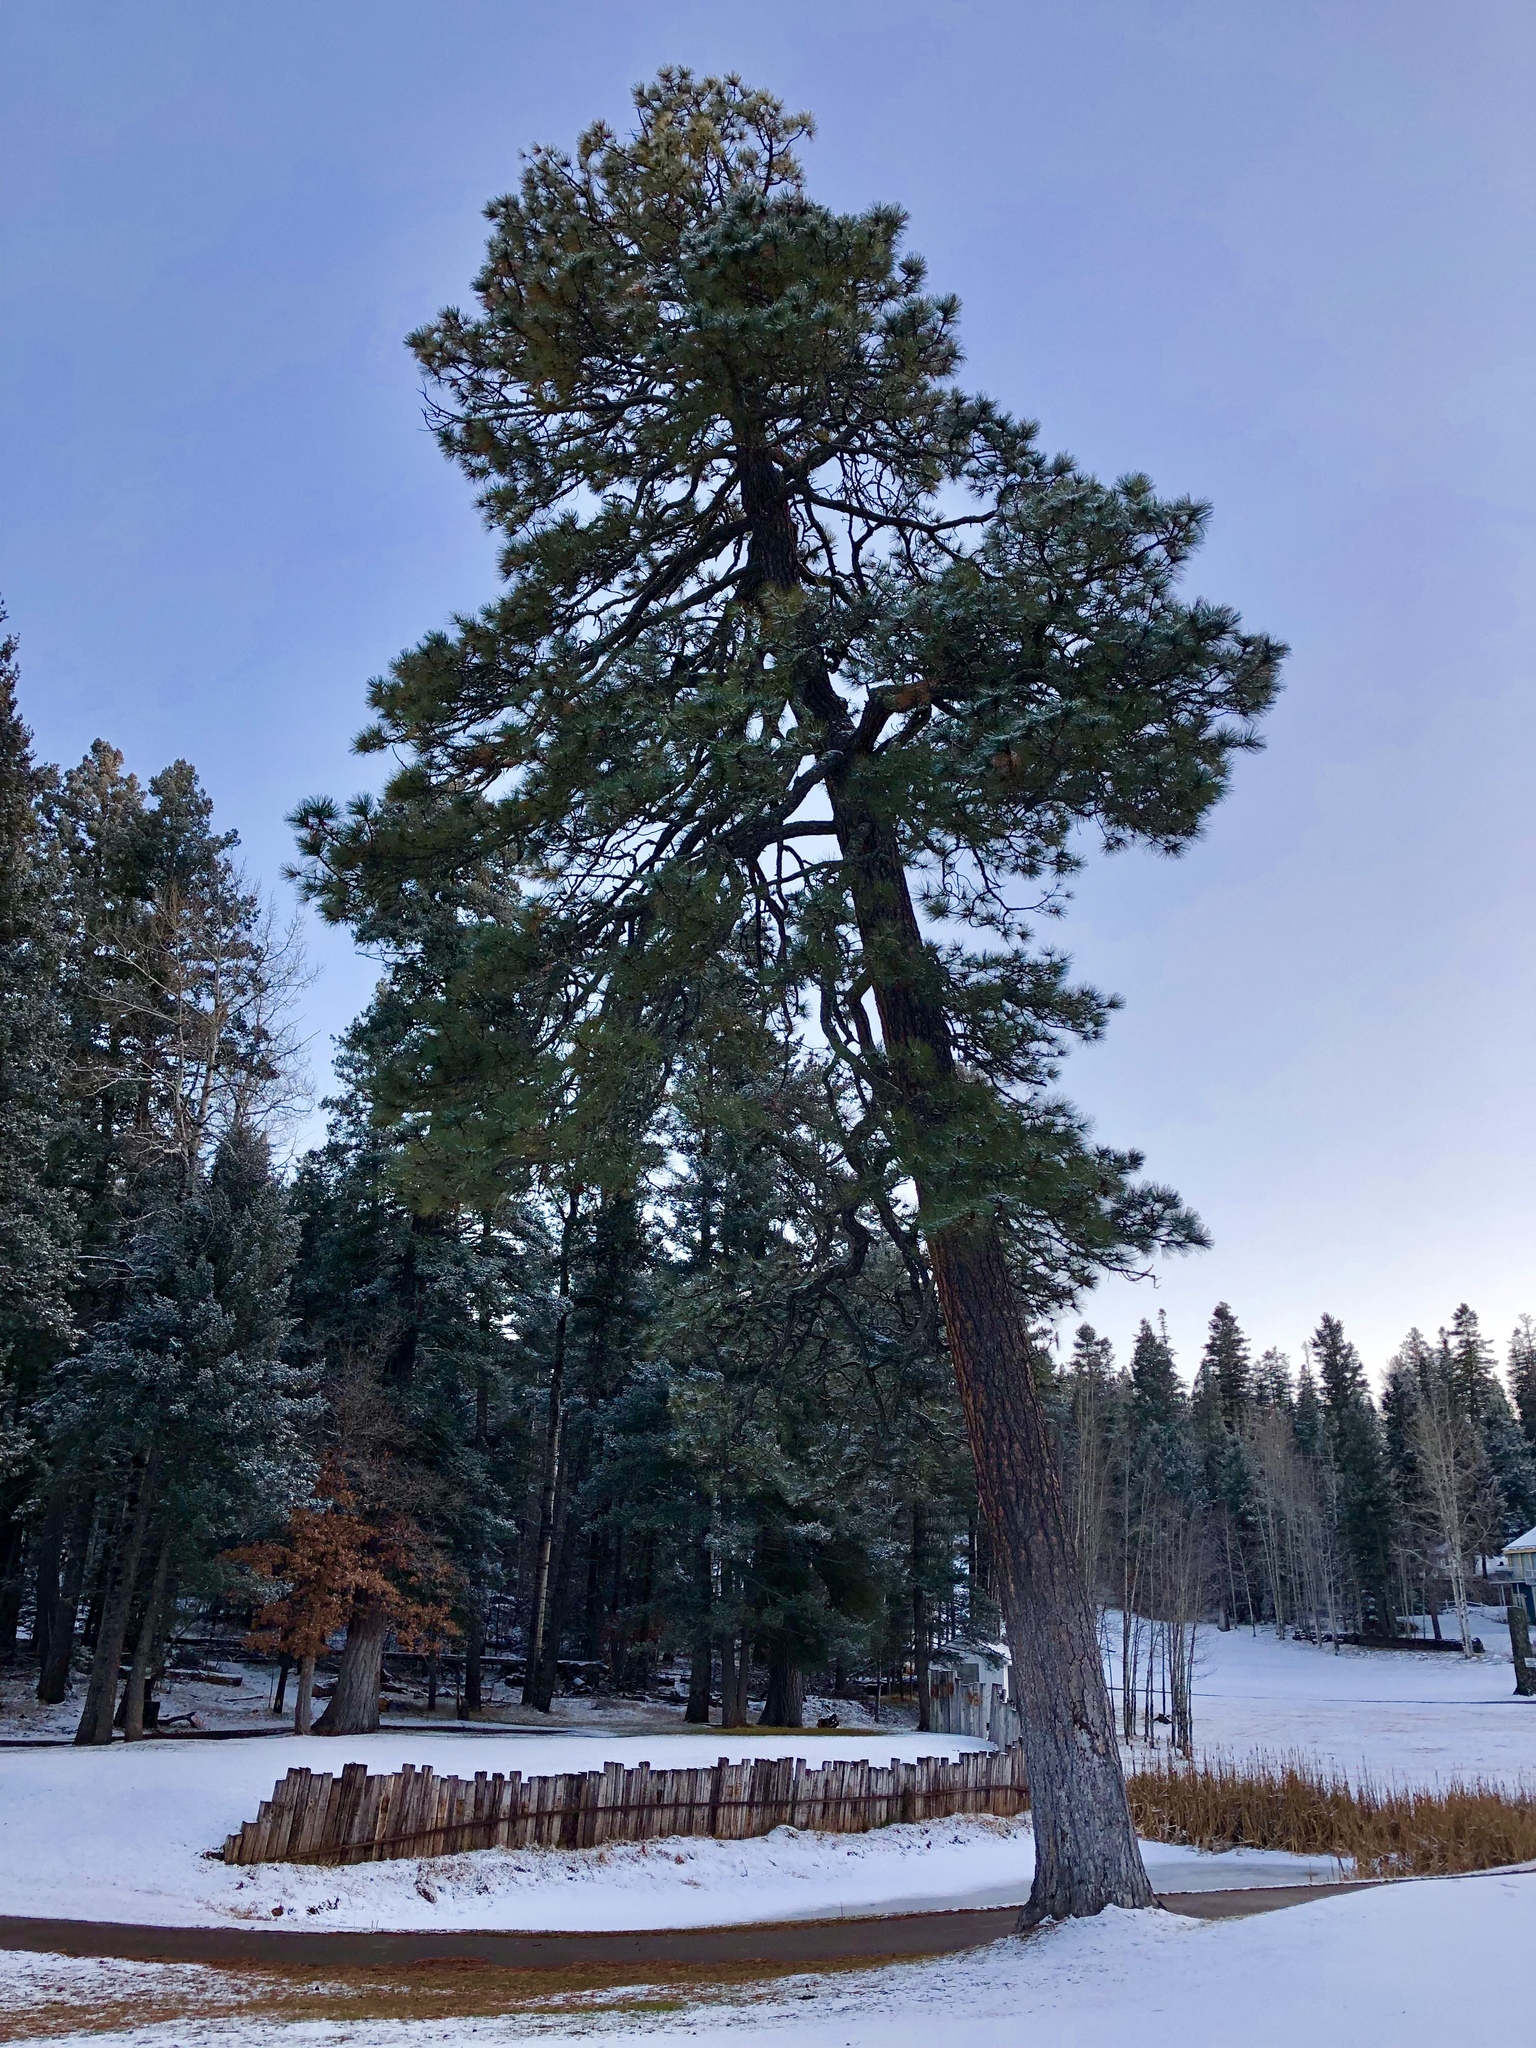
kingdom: Plantae
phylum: Tracheophyta
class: Pinopsida
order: Pinales
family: Pinaceae
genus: Pinus
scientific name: Pinus ponderosa
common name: Western yellow-pine
